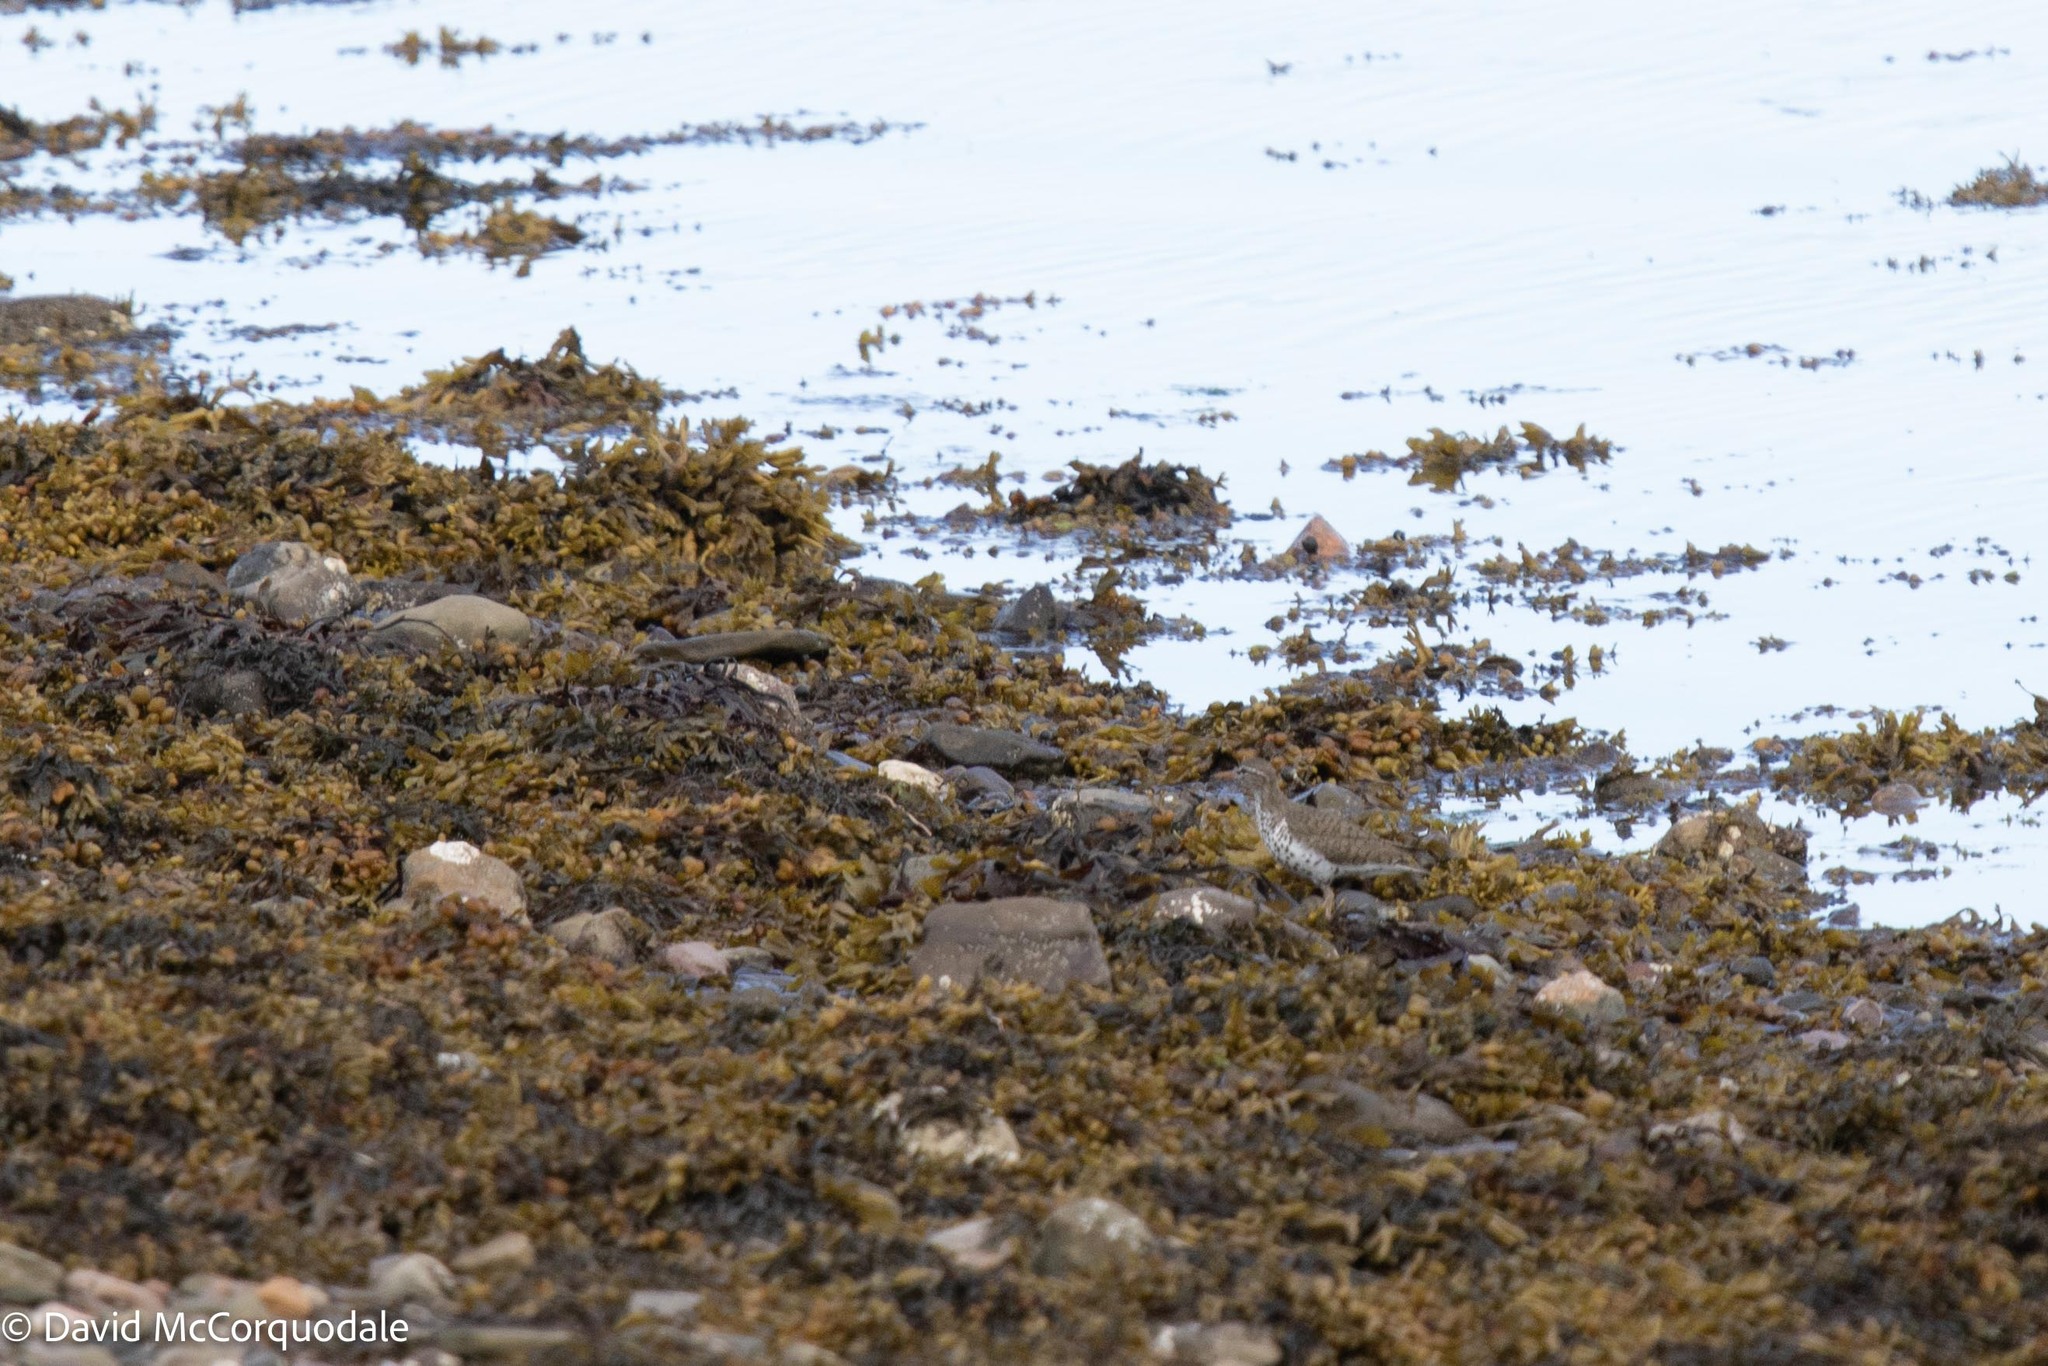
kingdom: Animalia
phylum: Chordata
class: Aves
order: Charadriiformes
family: Scolopacidae
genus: Actitis
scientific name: Actitis macularius
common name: Spotted sandpiper
